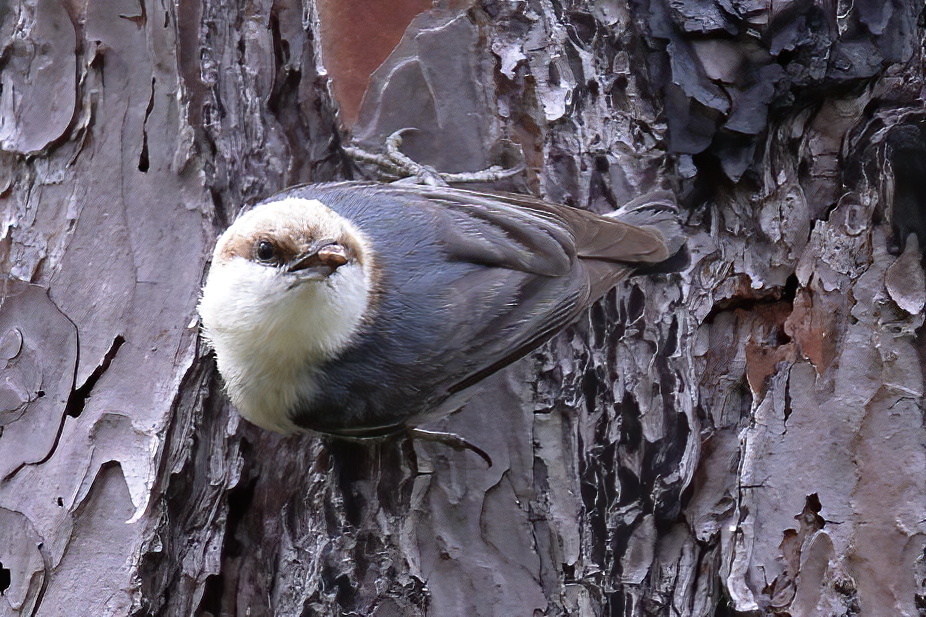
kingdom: Animalia
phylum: Chordata
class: Aves
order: Passeriformes
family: Sittidae
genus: Sitta
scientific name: Sitta pusilla
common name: Brown-headed nuthatch
